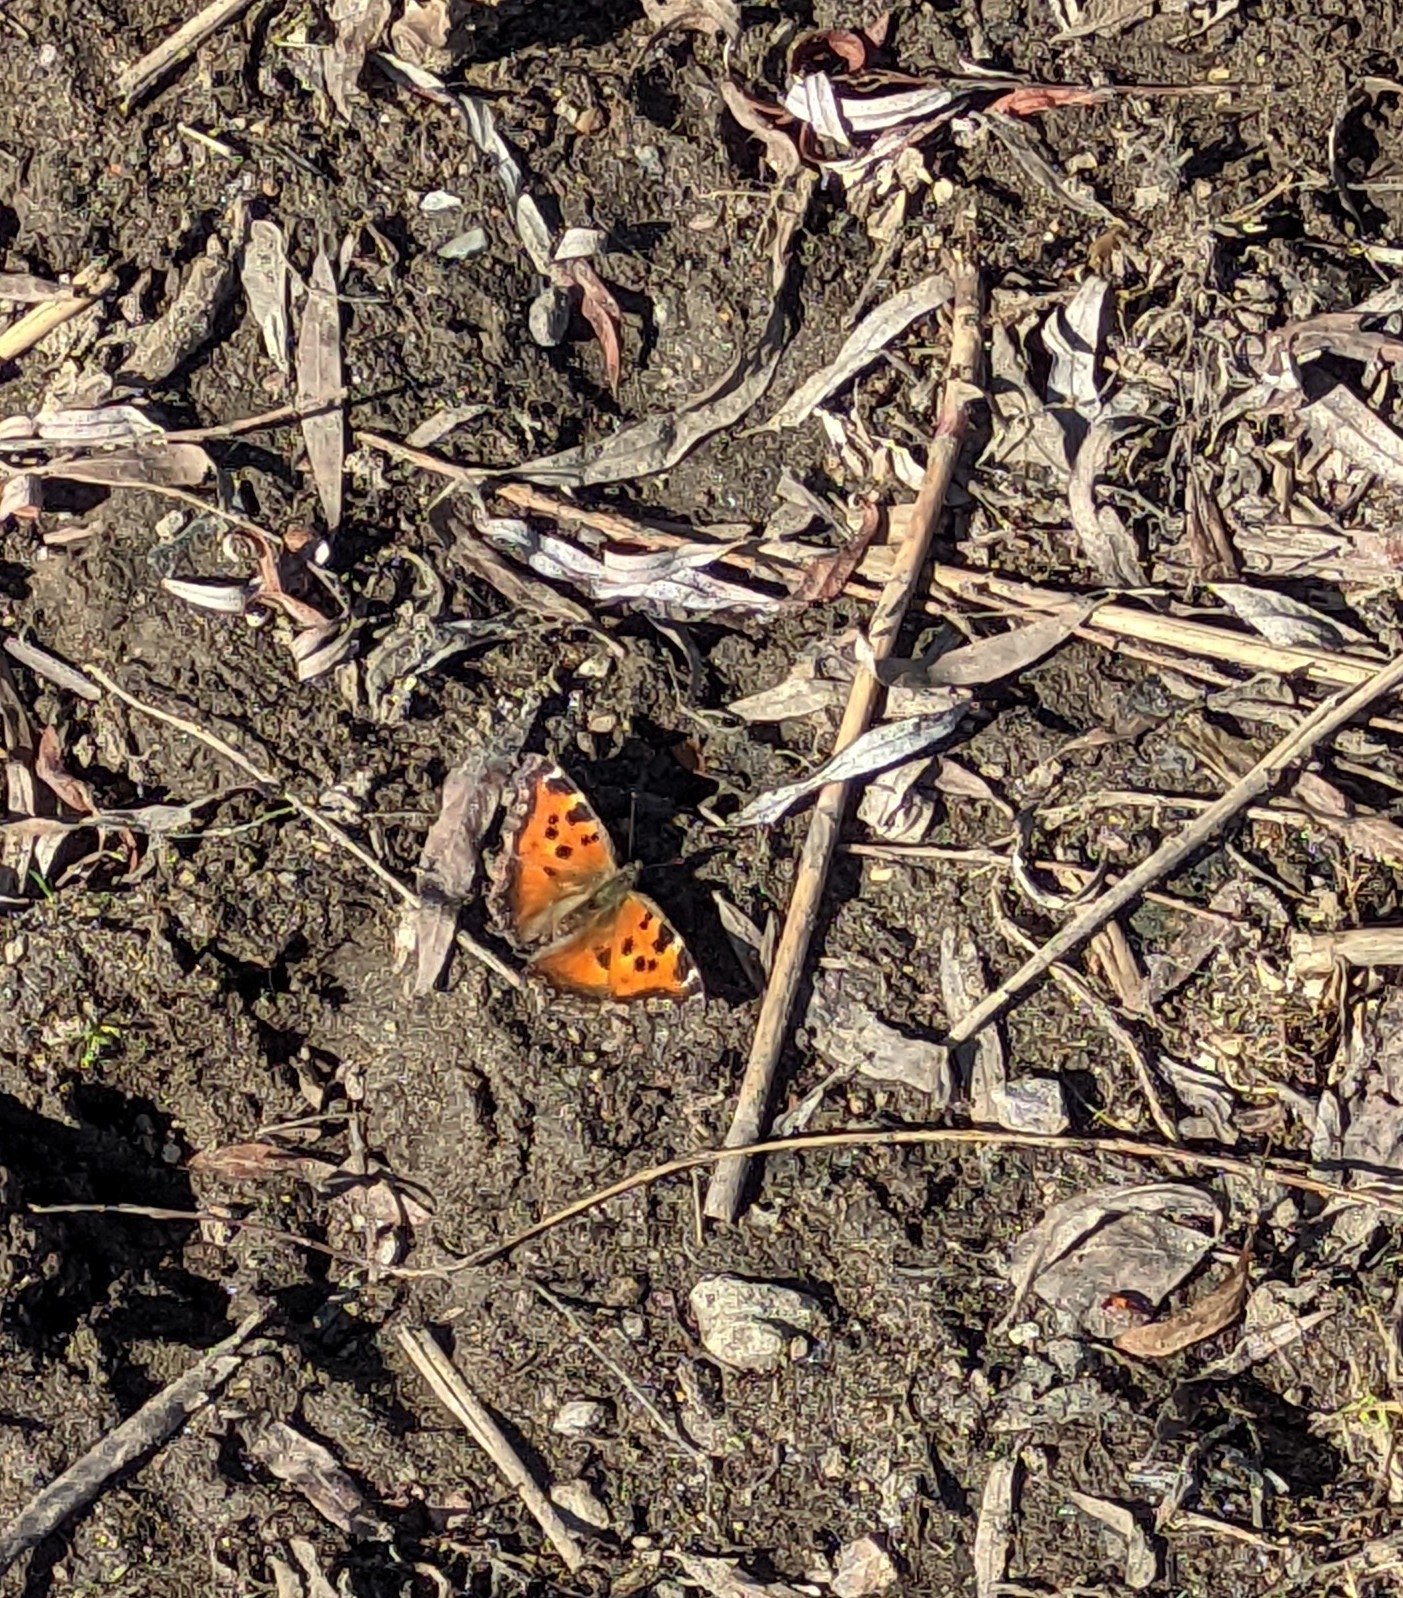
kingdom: Animalia
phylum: Arthropoda
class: Insecta
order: Lepidoptera
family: Nymphalidae
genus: Nymphalis
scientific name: Nymphalis xanthomelas
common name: Scarce tortoiseshell
